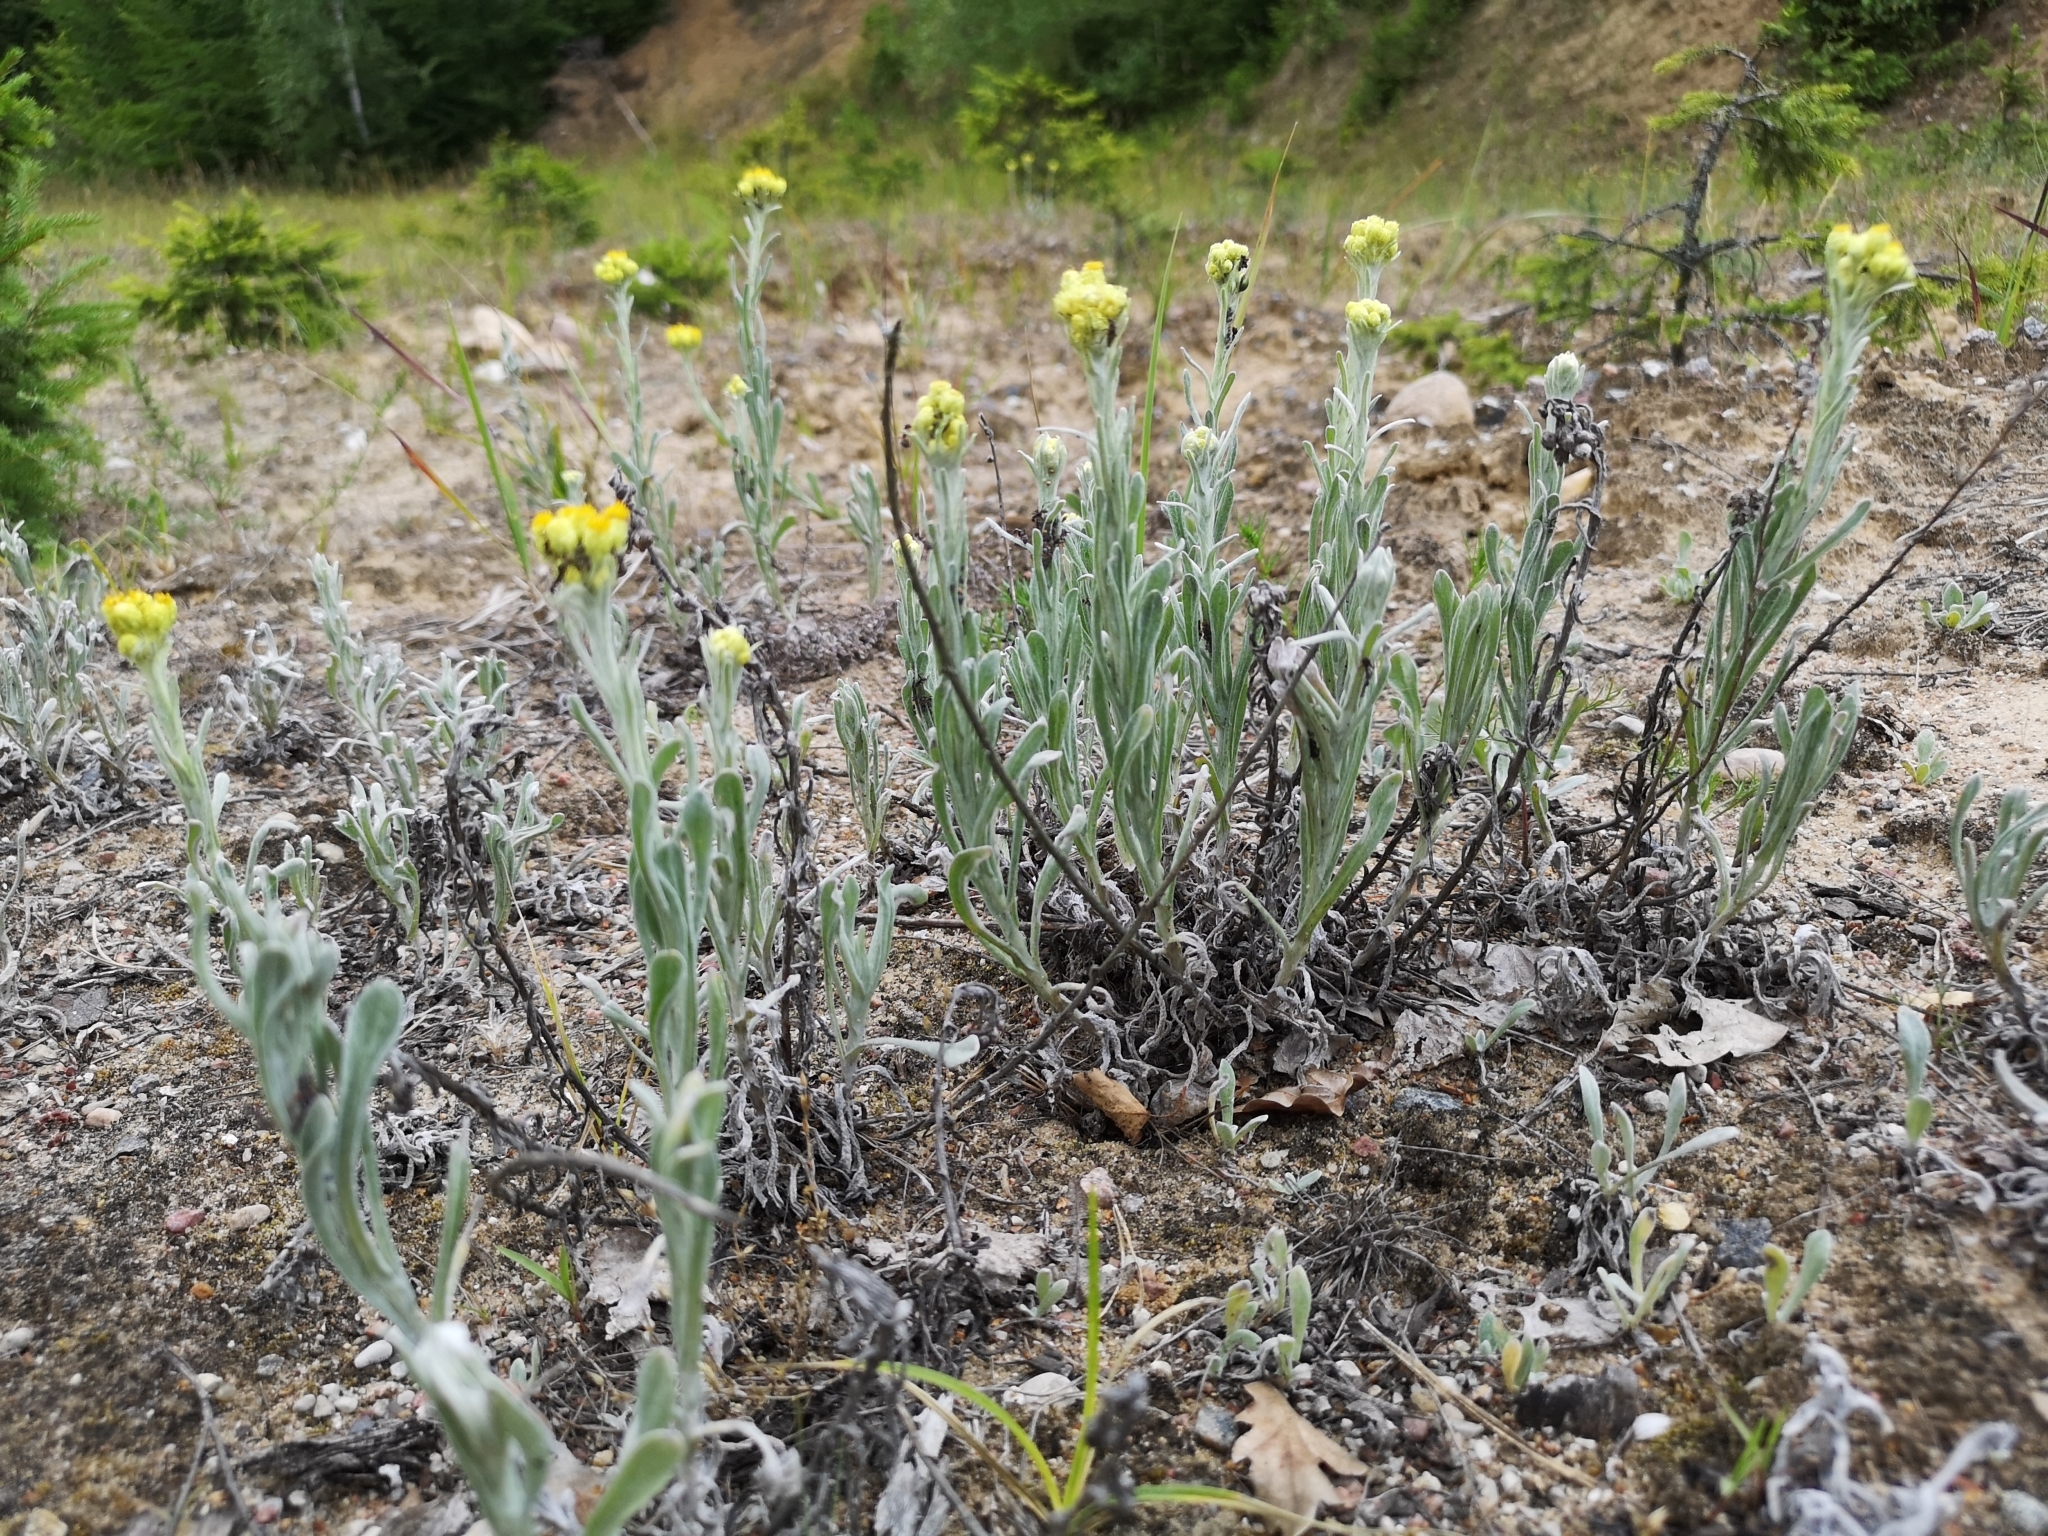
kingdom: Plantae
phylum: Tracheophyta
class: Magnoliopsida
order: Asterales
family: Asteraceae
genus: Helichrysum
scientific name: Helichrysum arenarium
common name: Strawflower
